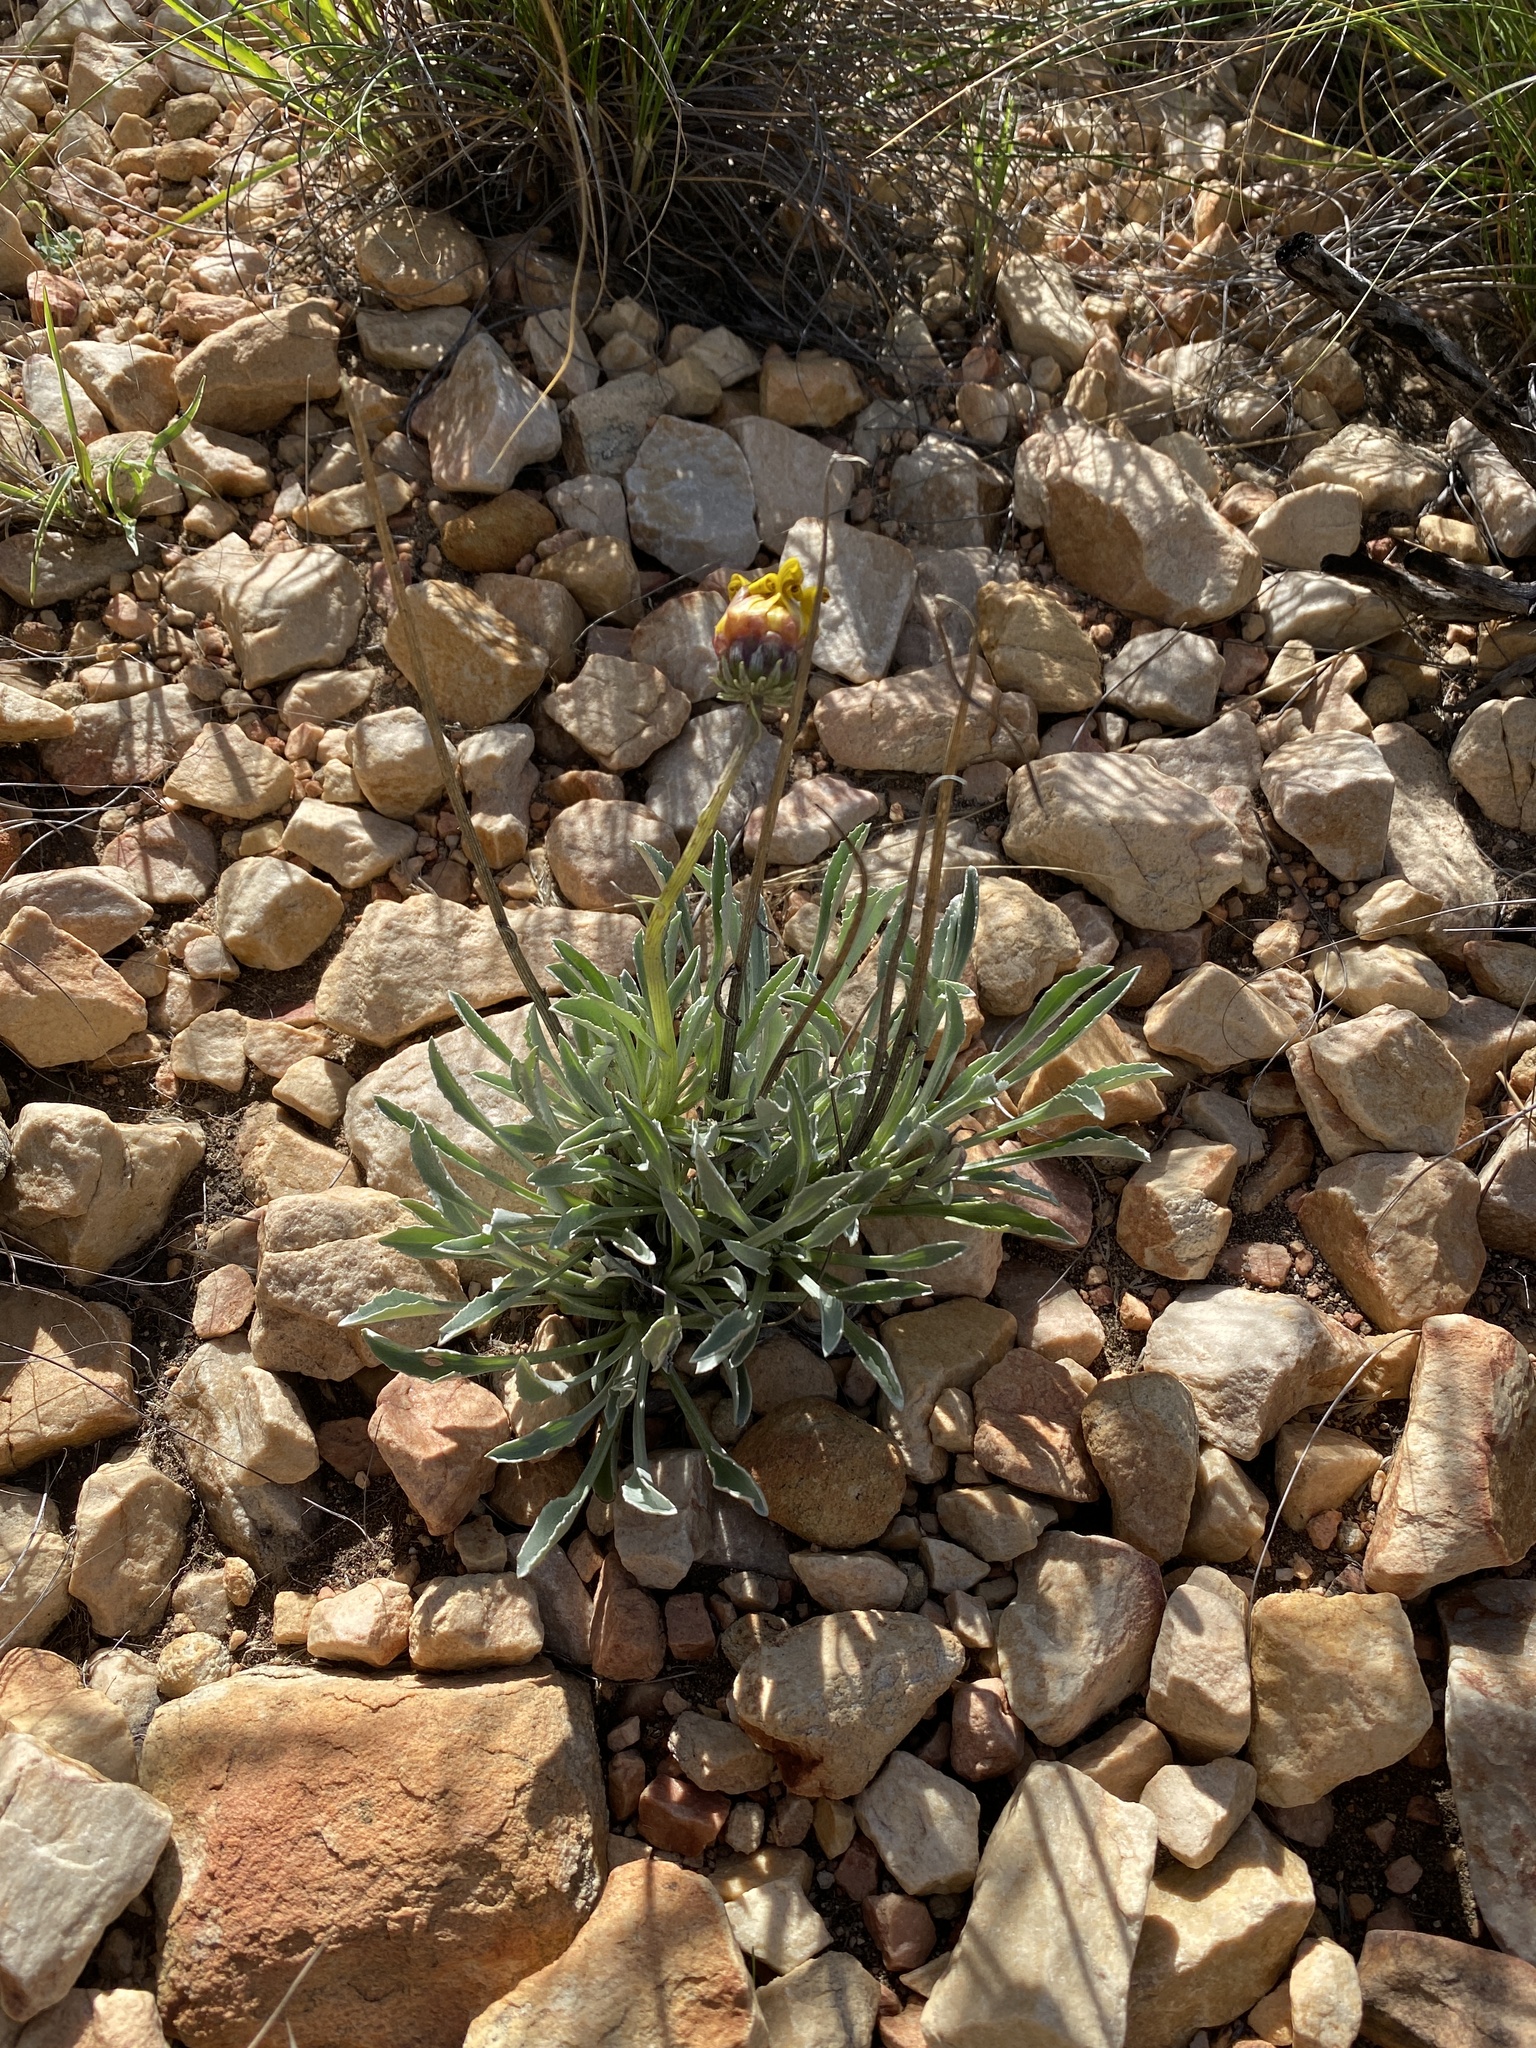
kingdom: Plantae
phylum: Tracheophyta
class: Magnoliopsida
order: Asterales
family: Asteraceae
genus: Arctotis
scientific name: Arctotis lanceolata
